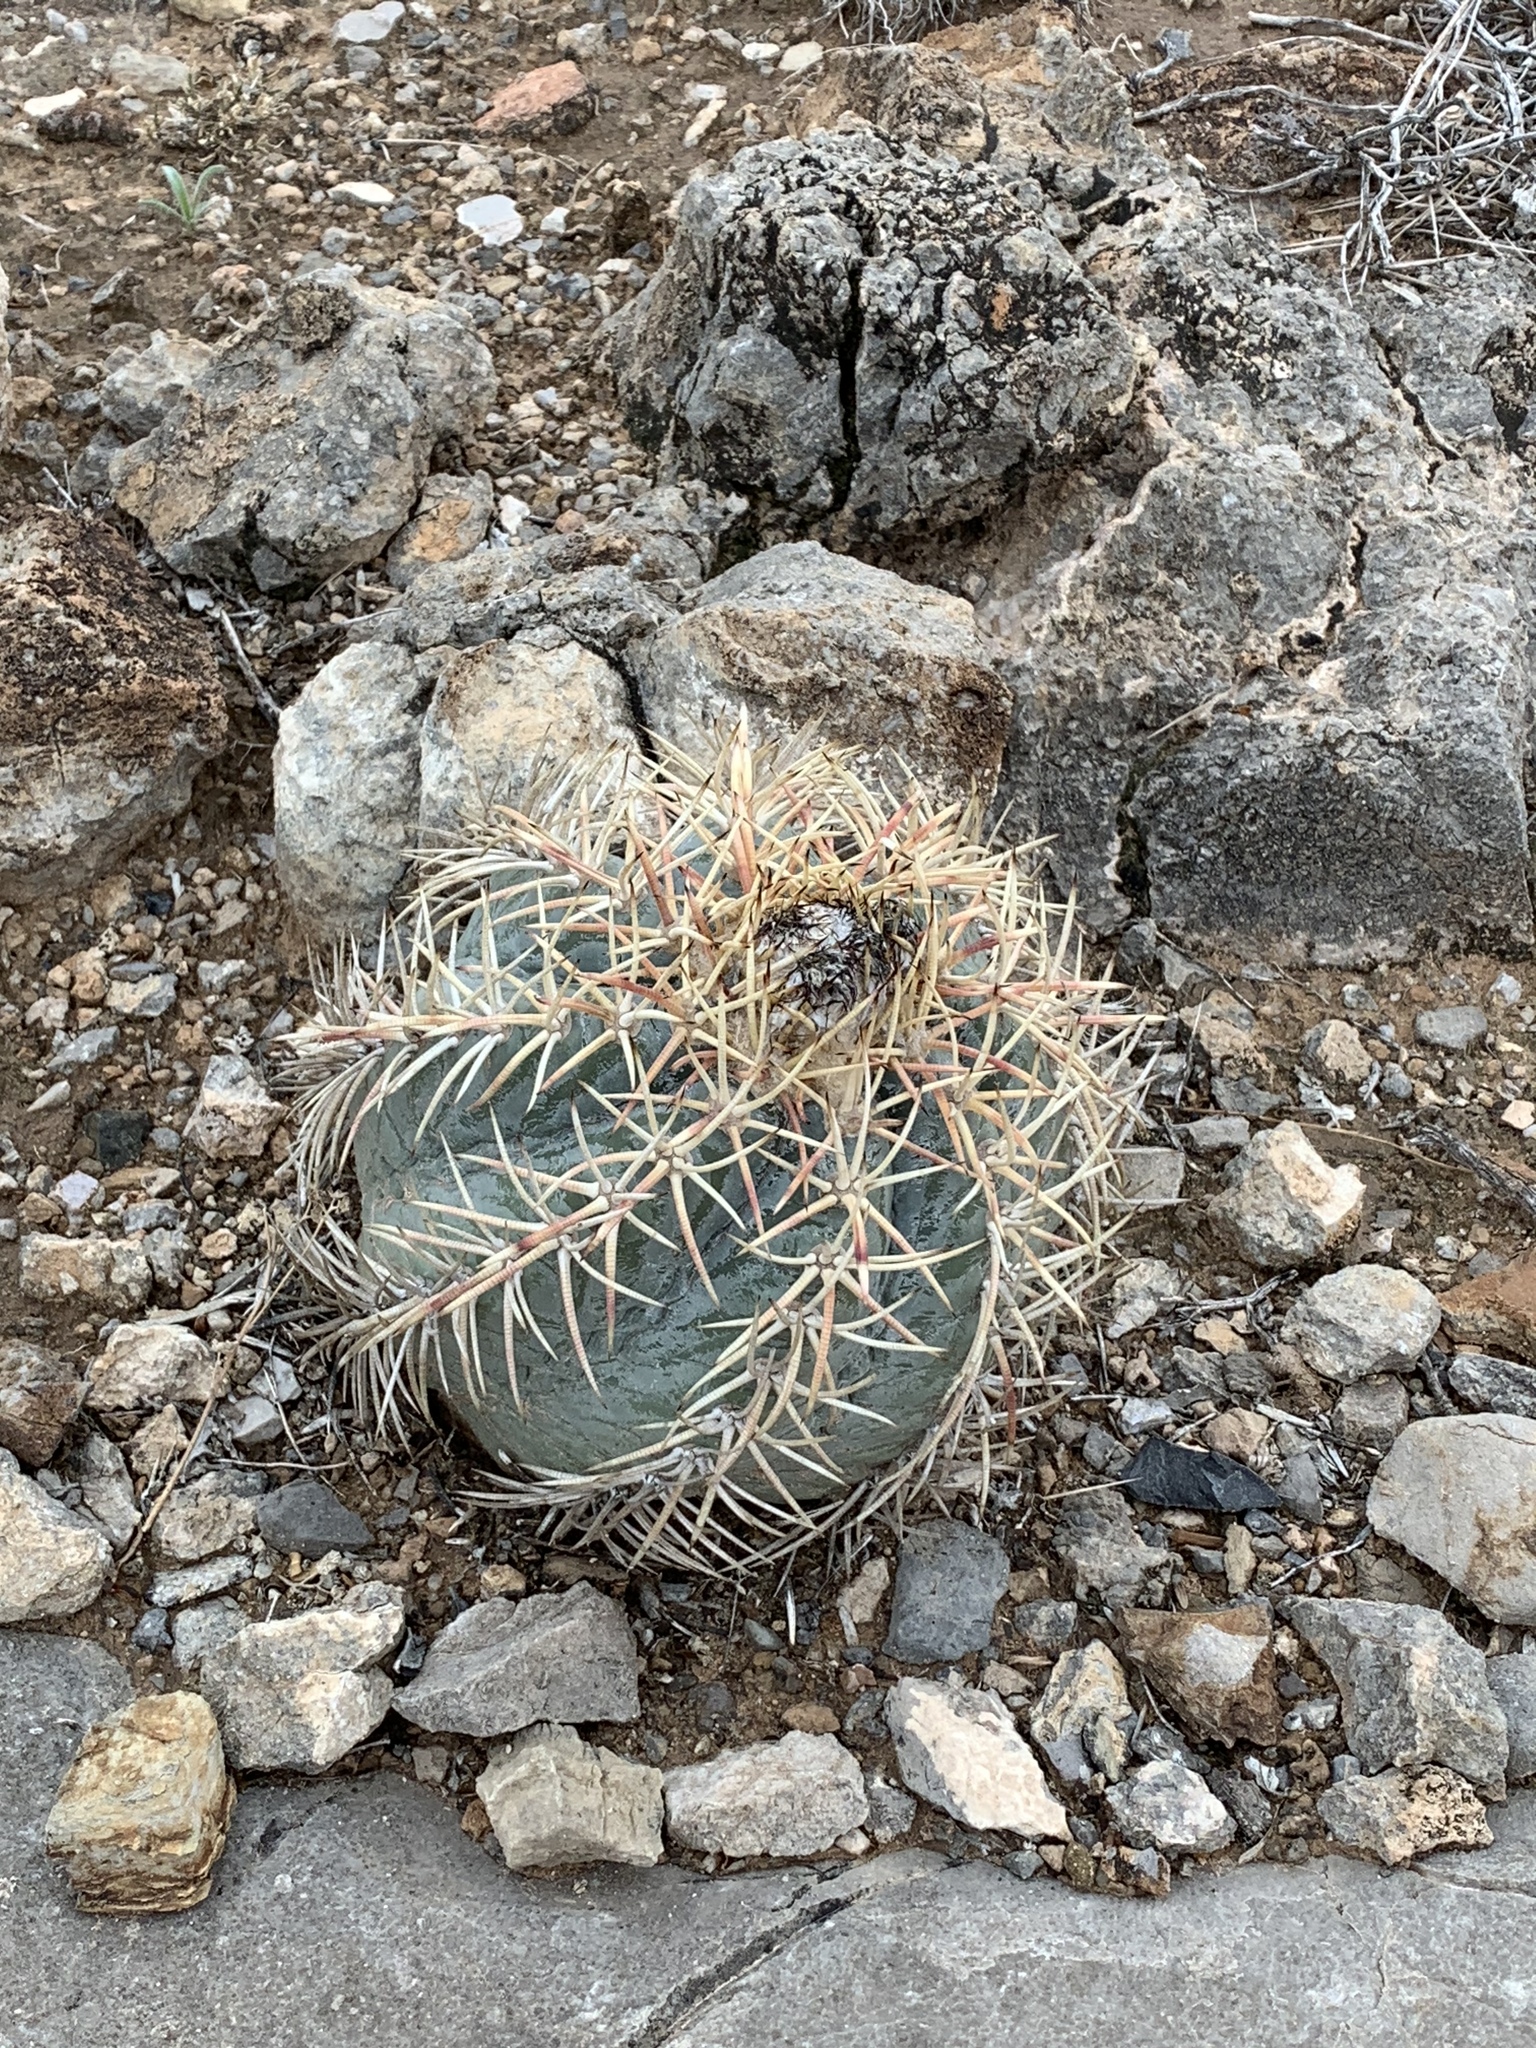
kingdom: Plantae
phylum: Tracheophyta
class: Magnoliopsida
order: Caryophyllales
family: Cactaceae
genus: Echinocactus
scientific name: Echinocactus horizonthalonius
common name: Devilshead
